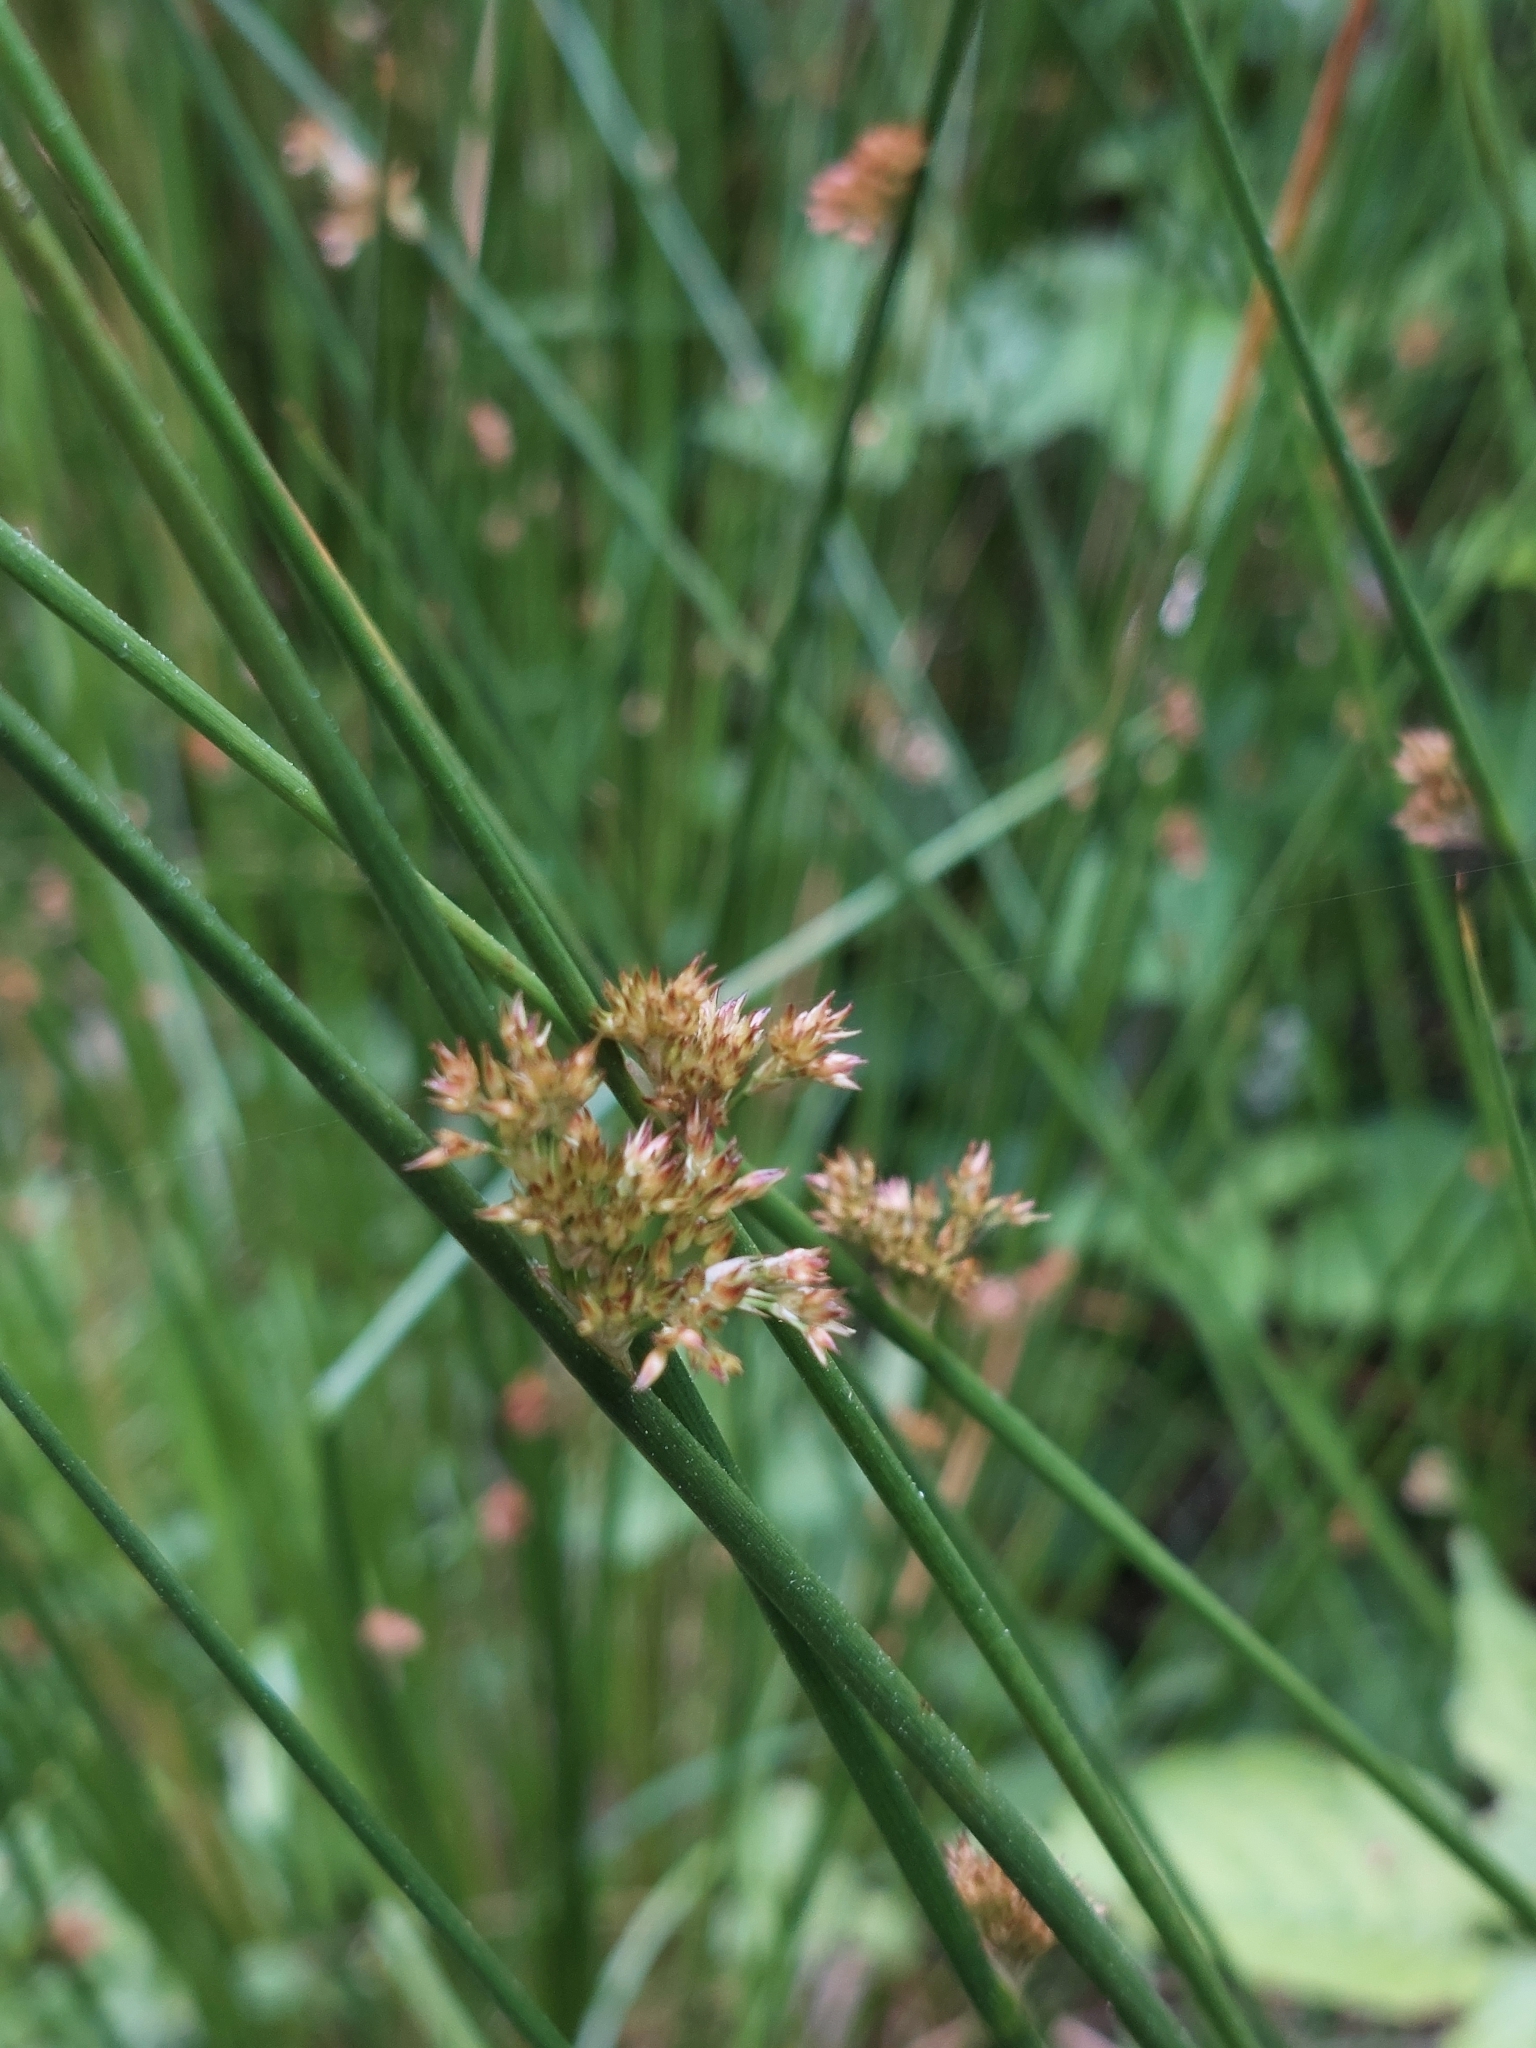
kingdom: Plantae
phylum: Tracheophyta
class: Liliopsida
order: Poales
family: Juncaceae
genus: Juncus
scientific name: Juncus effusus
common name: Soft rush
